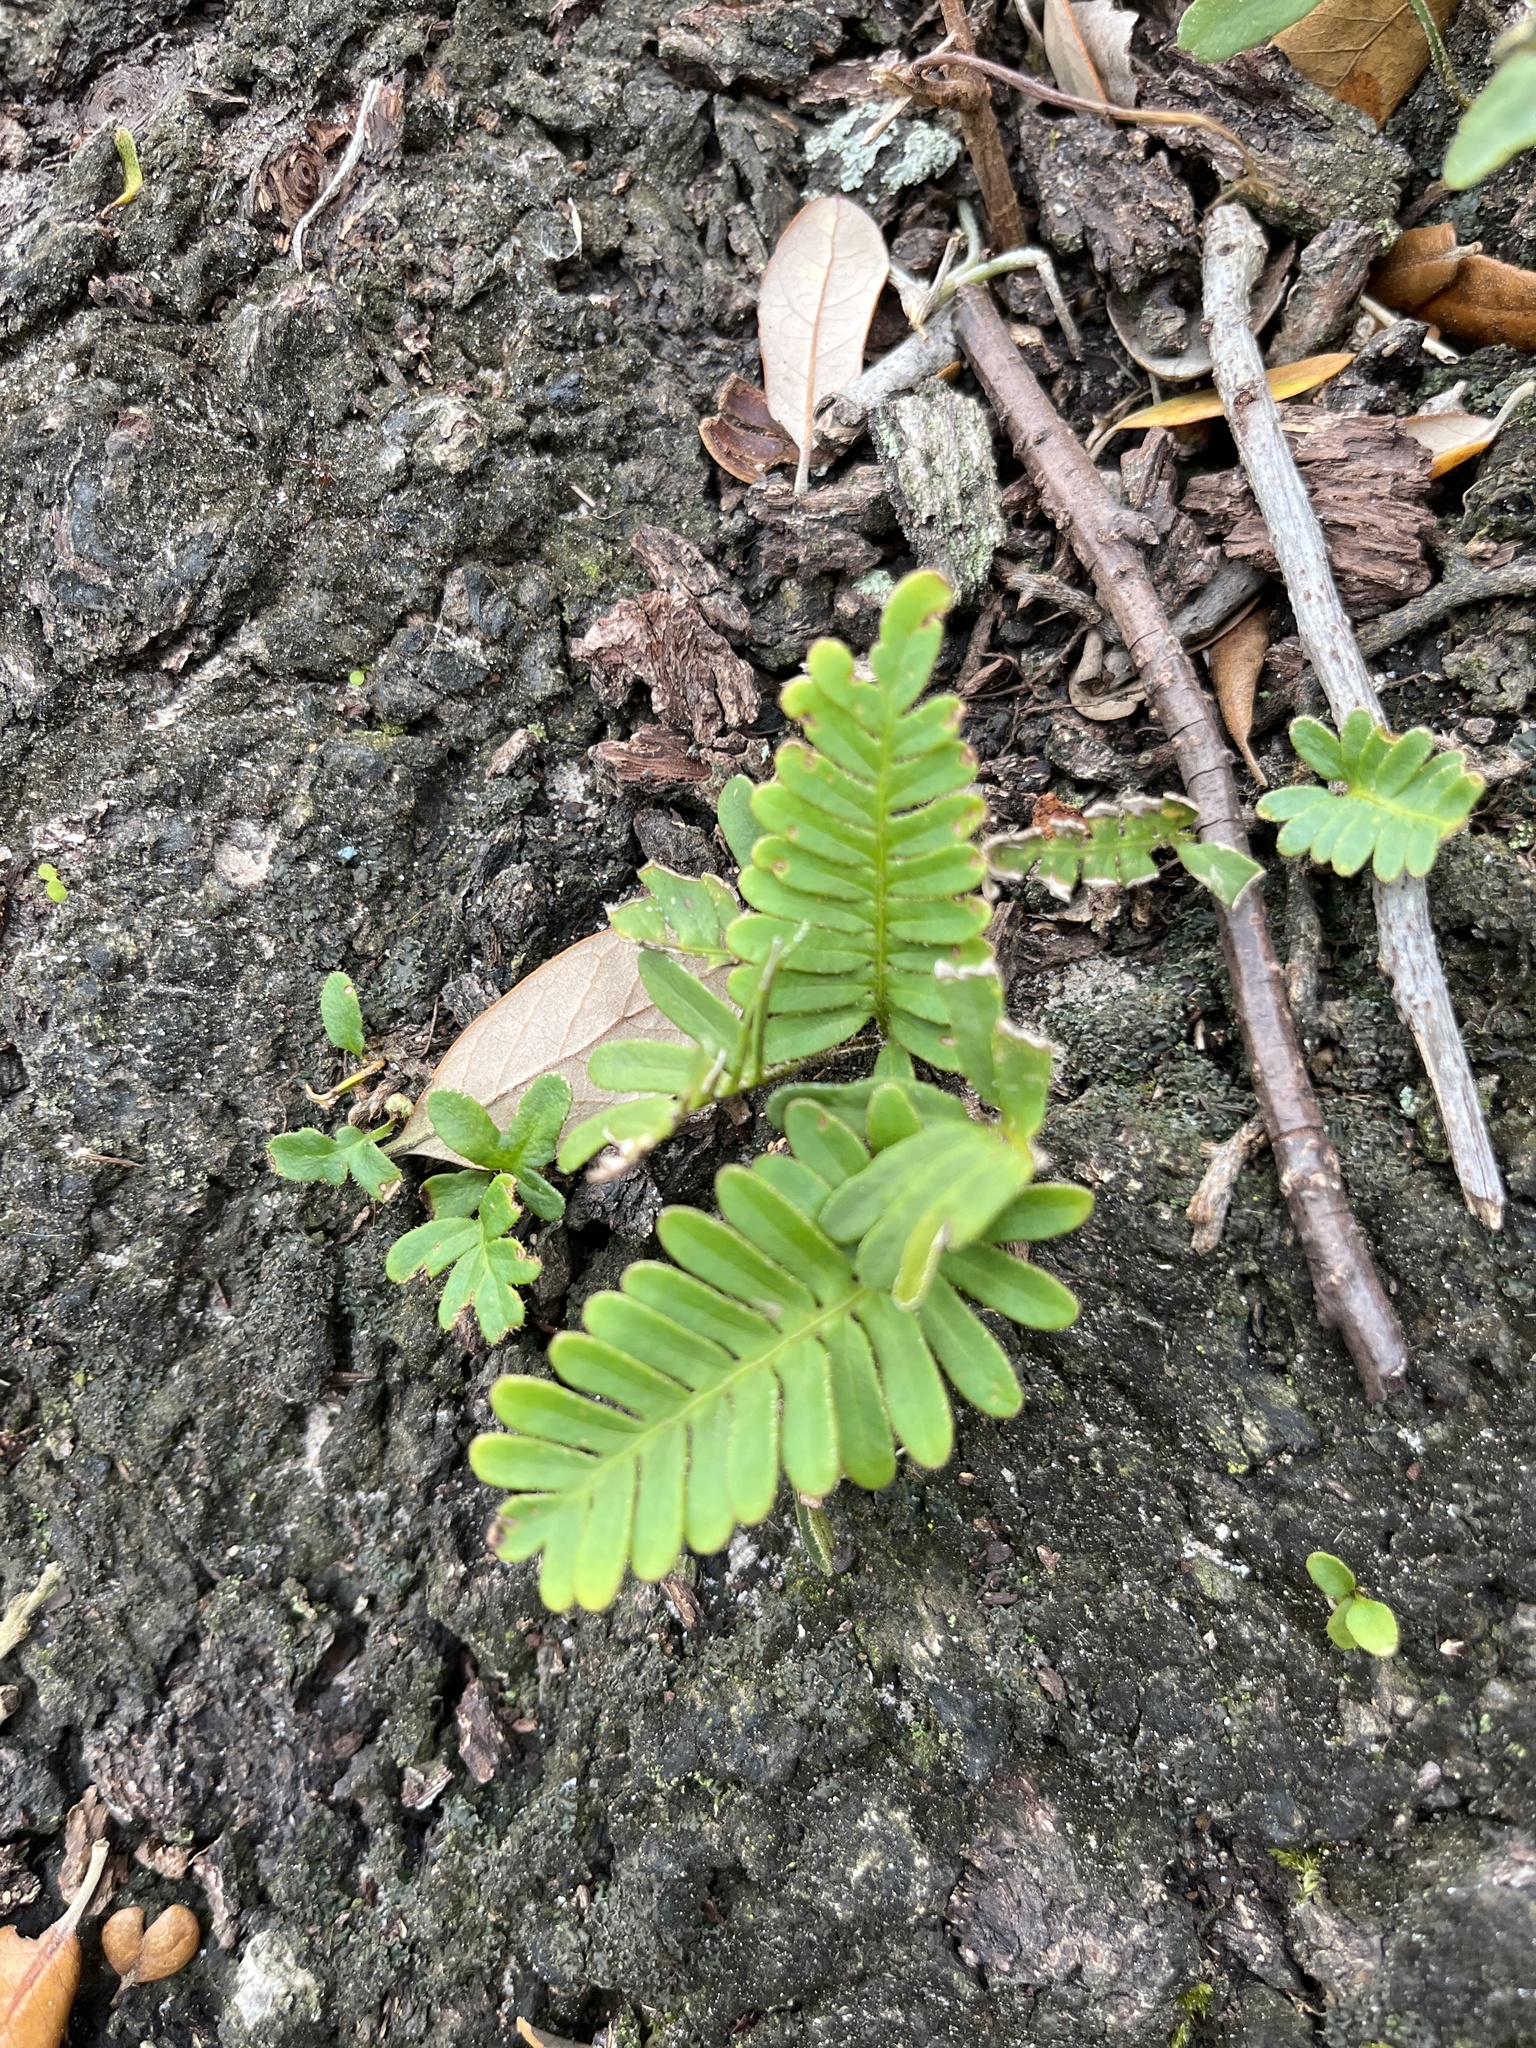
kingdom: Plantae
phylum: Tracheophyta
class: Polypodiopsida
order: Polypodiales
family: Polypodiaceae
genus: Pleopeltis
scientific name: Pleopeltis michauxiana
